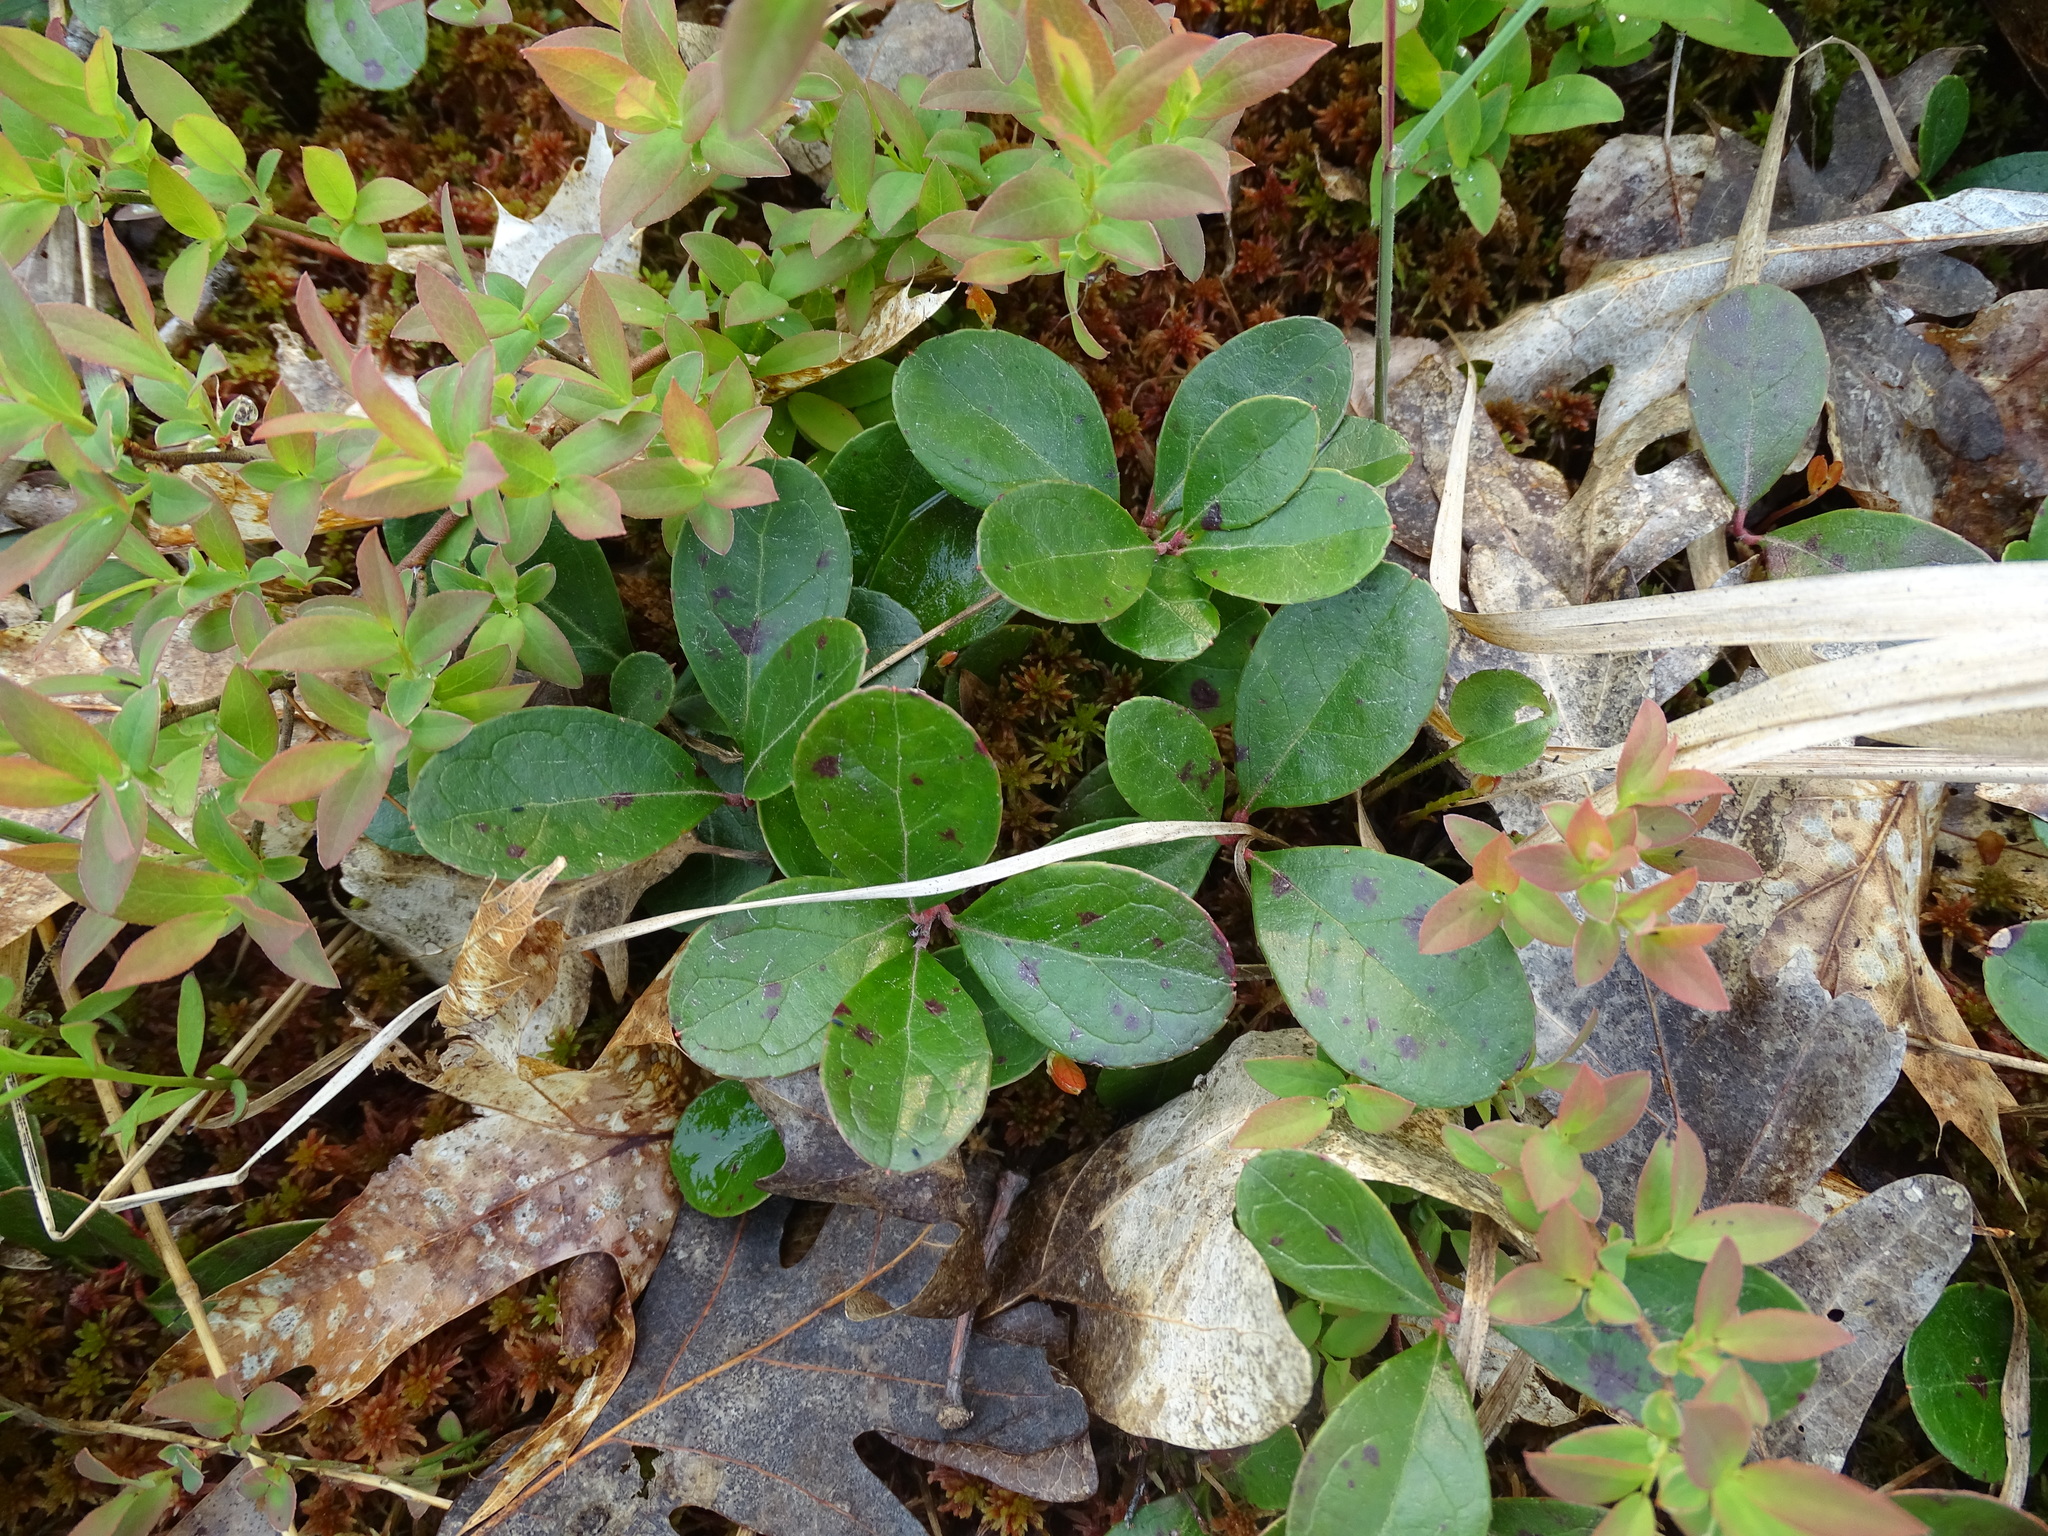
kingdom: Plantae
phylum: Tracheophyta
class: Magnoliopsida
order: Ericales
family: Ericaceae
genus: Gaultheria
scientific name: Gaultheria procumbens
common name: Checkerberry
